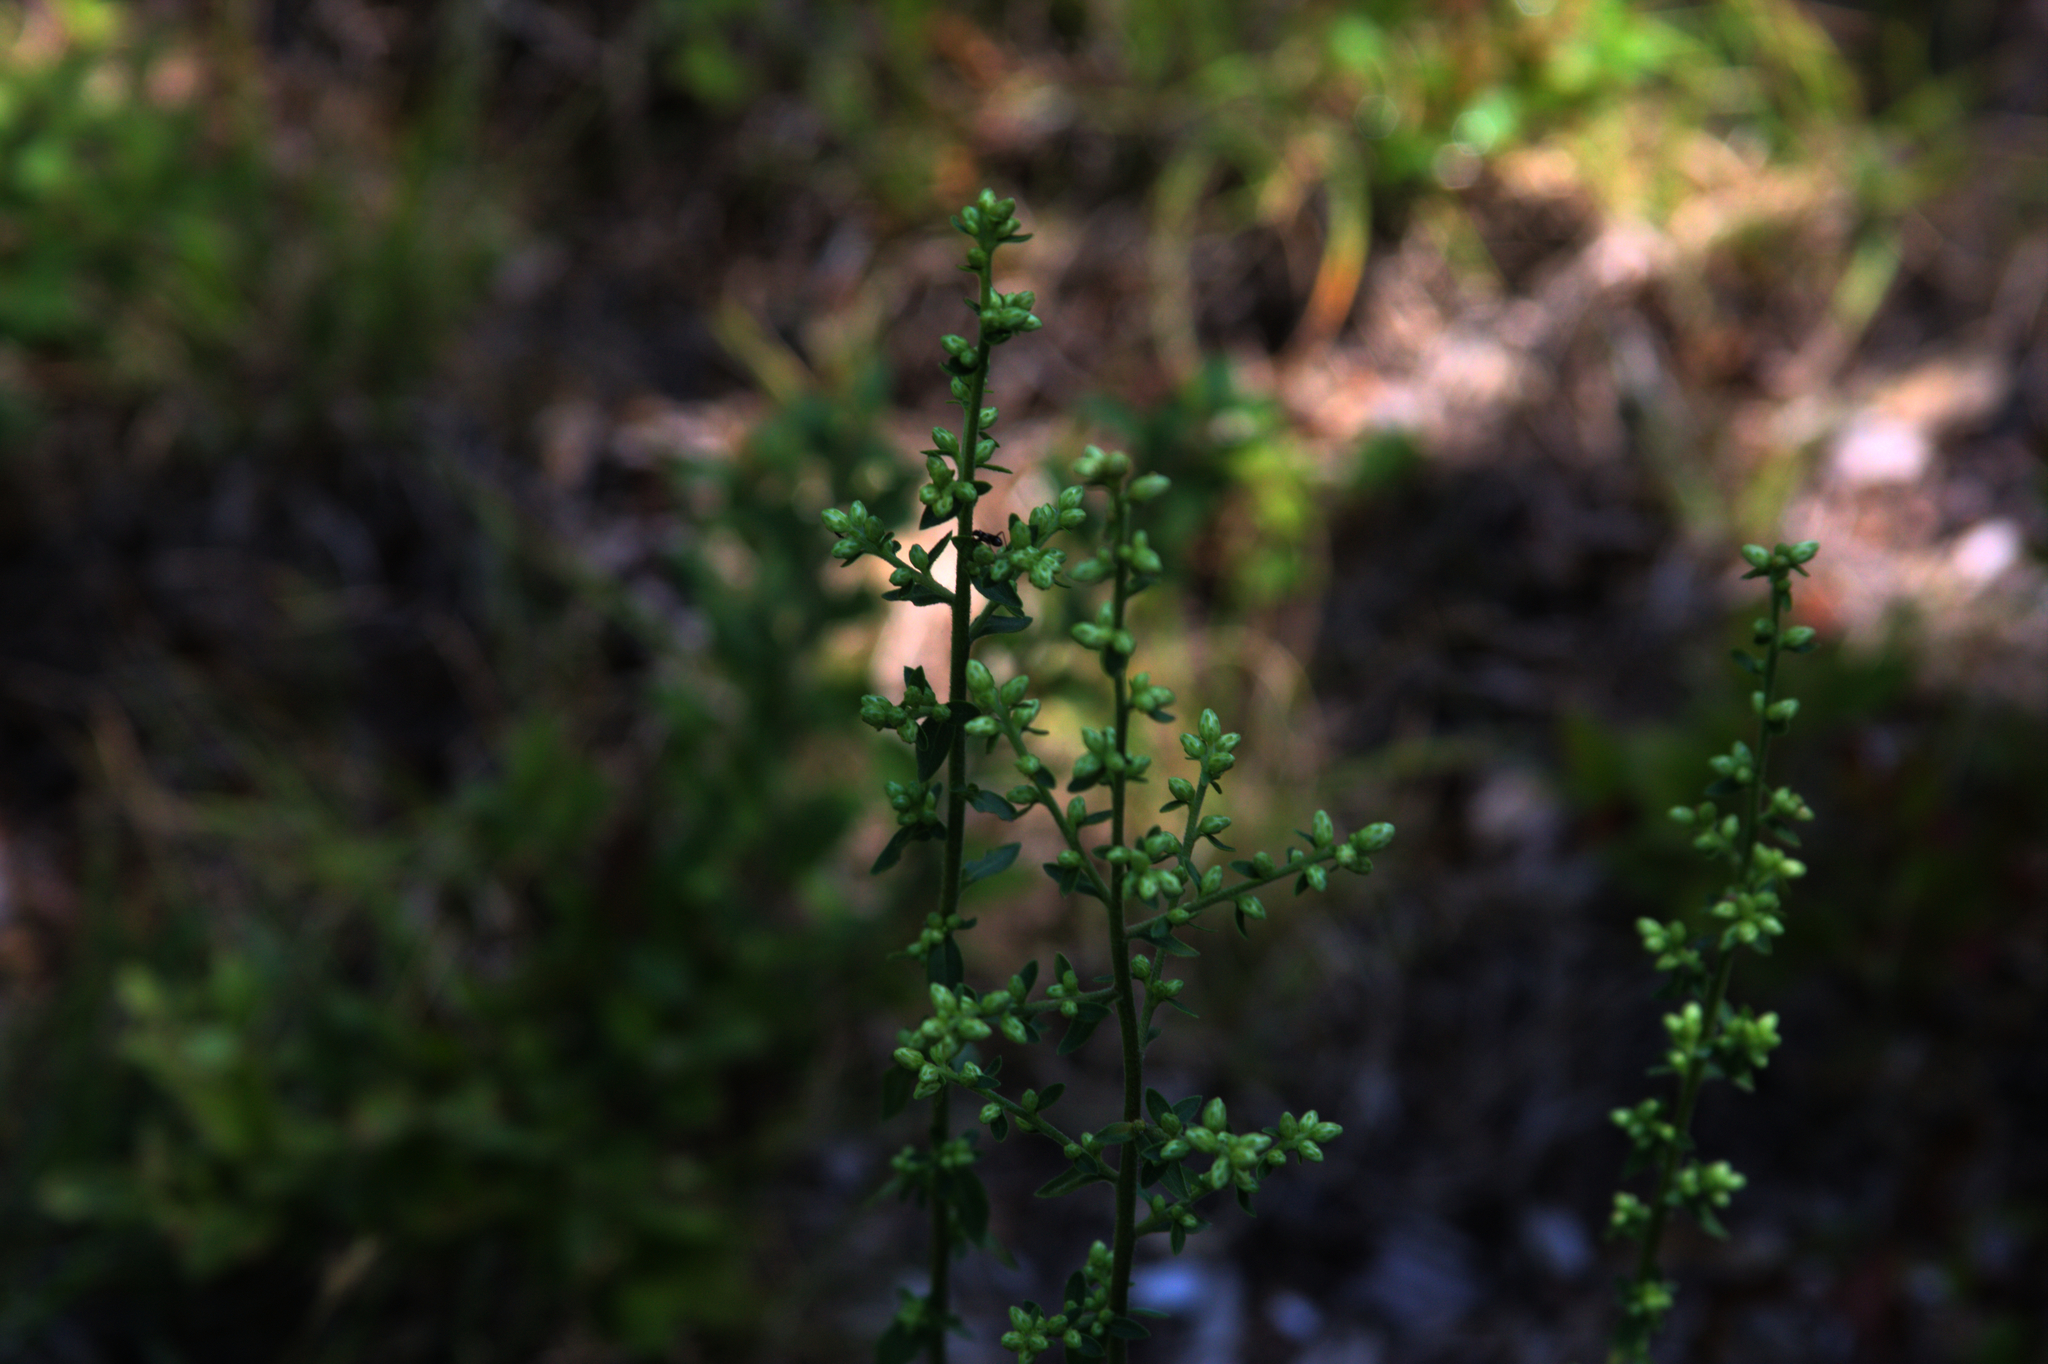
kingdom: Plantae
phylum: Tracheophyta
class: Magnoliopsida
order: Asterales
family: Asteraceae
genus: Solidago
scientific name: Solidago bicolor
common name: Silverrod
